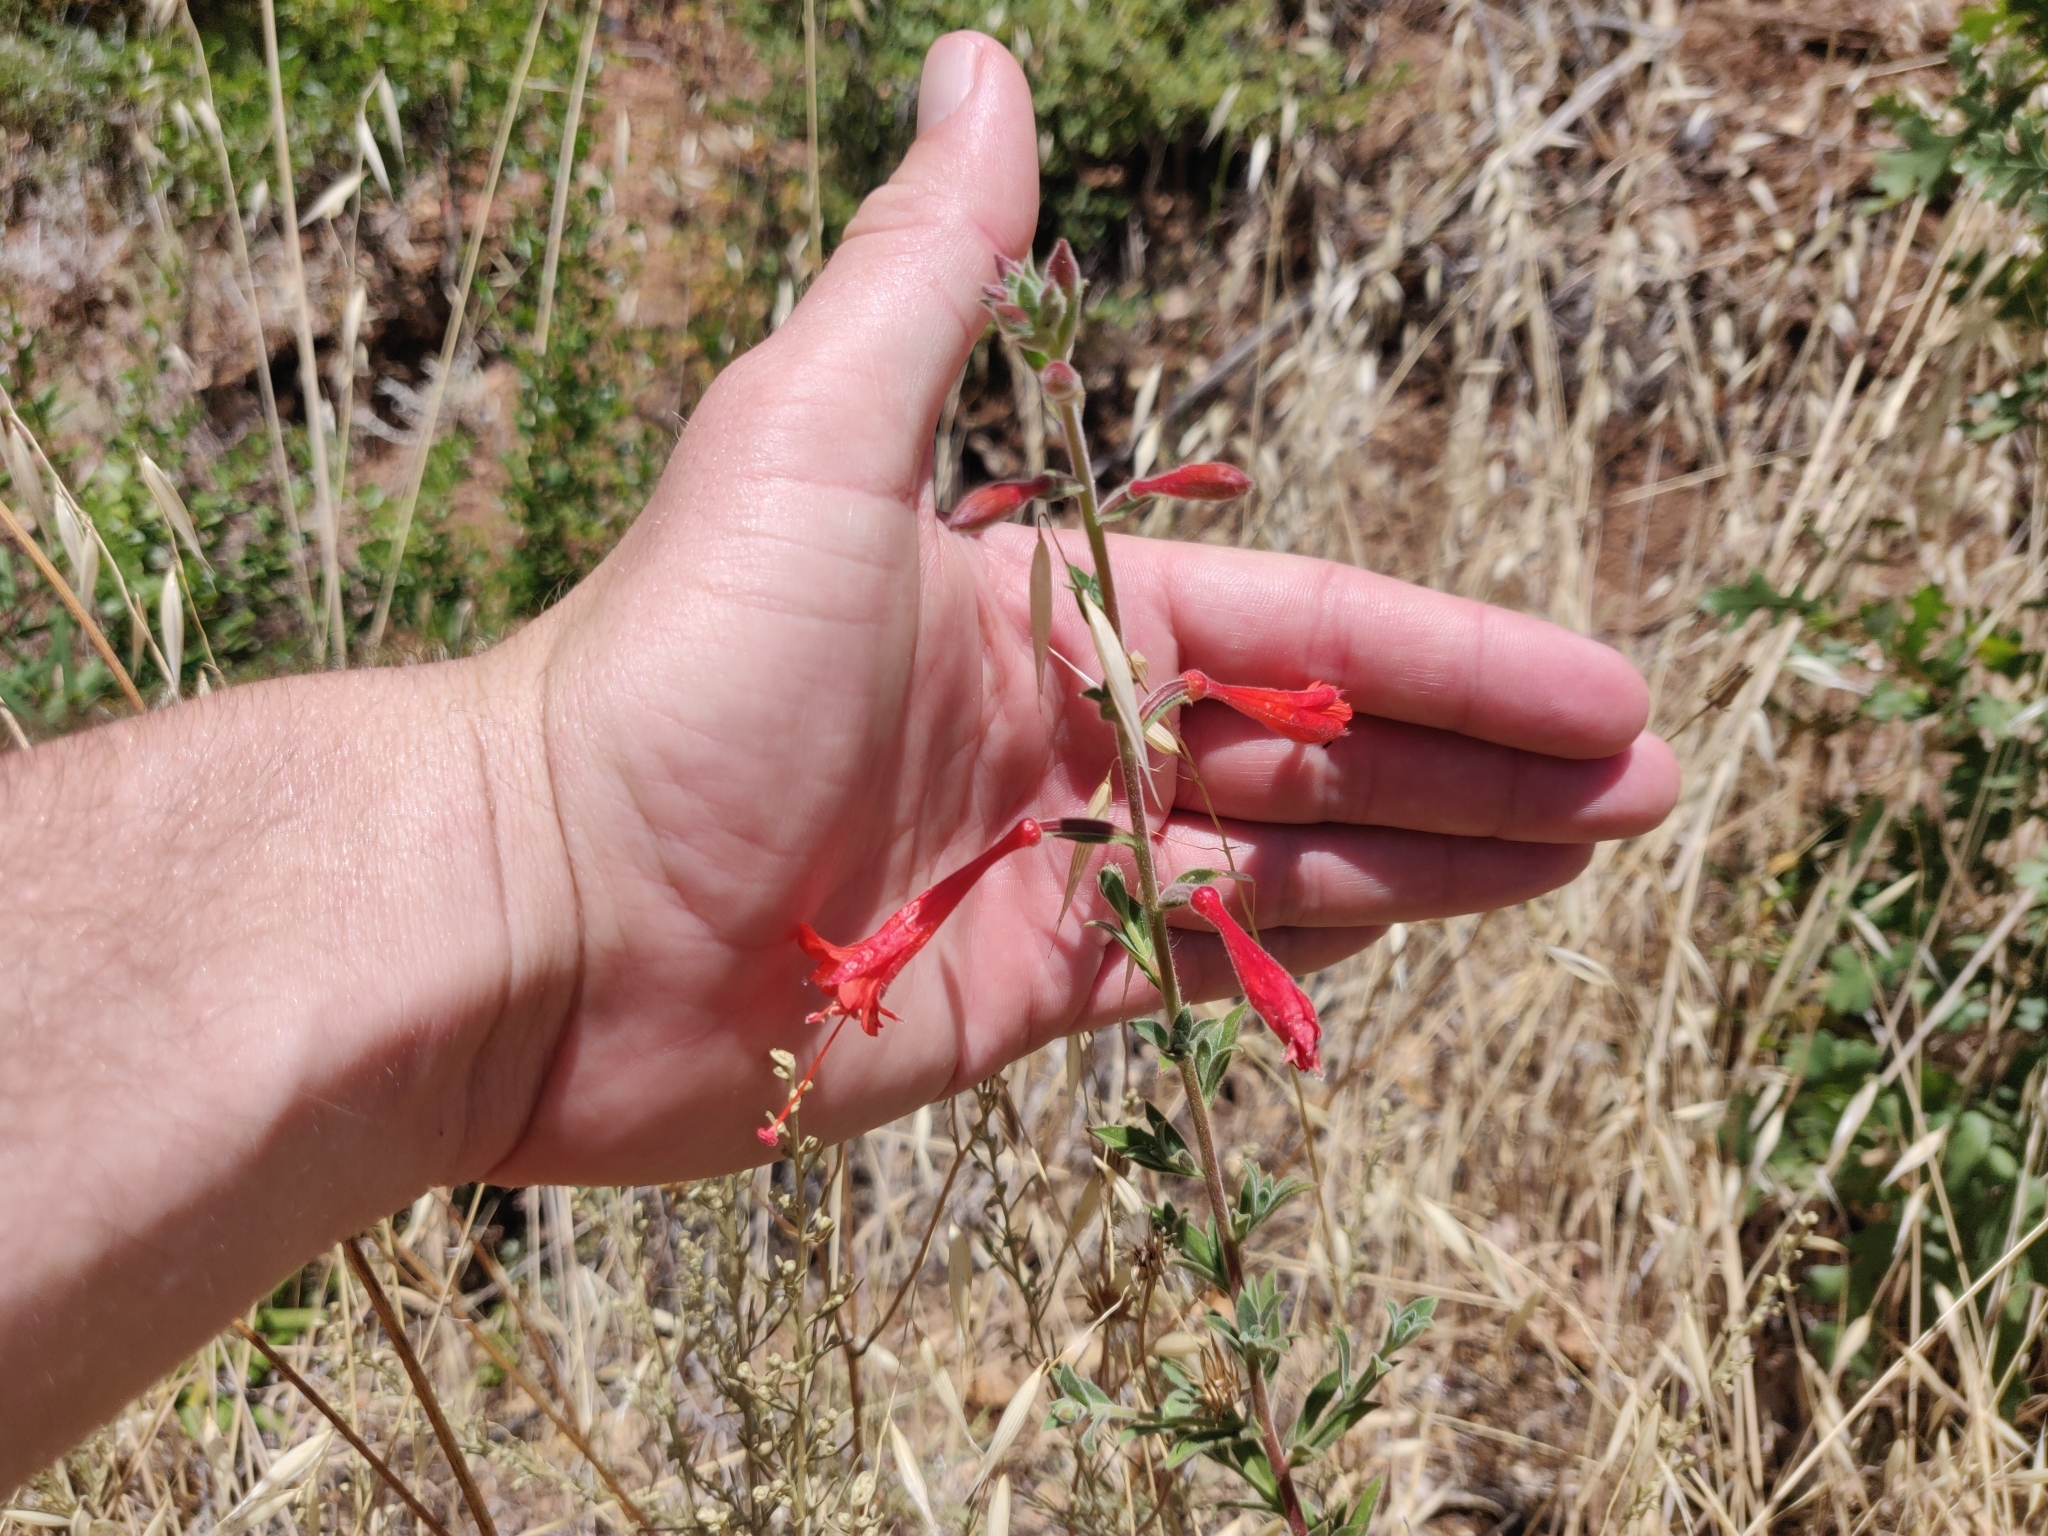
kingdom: Plantae
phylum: Tracheophyta
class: Magnoliopsida
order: Myrtales
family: Onagraceae
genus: Epilobium
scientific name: Epilobium canum
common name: California-fuchsia
